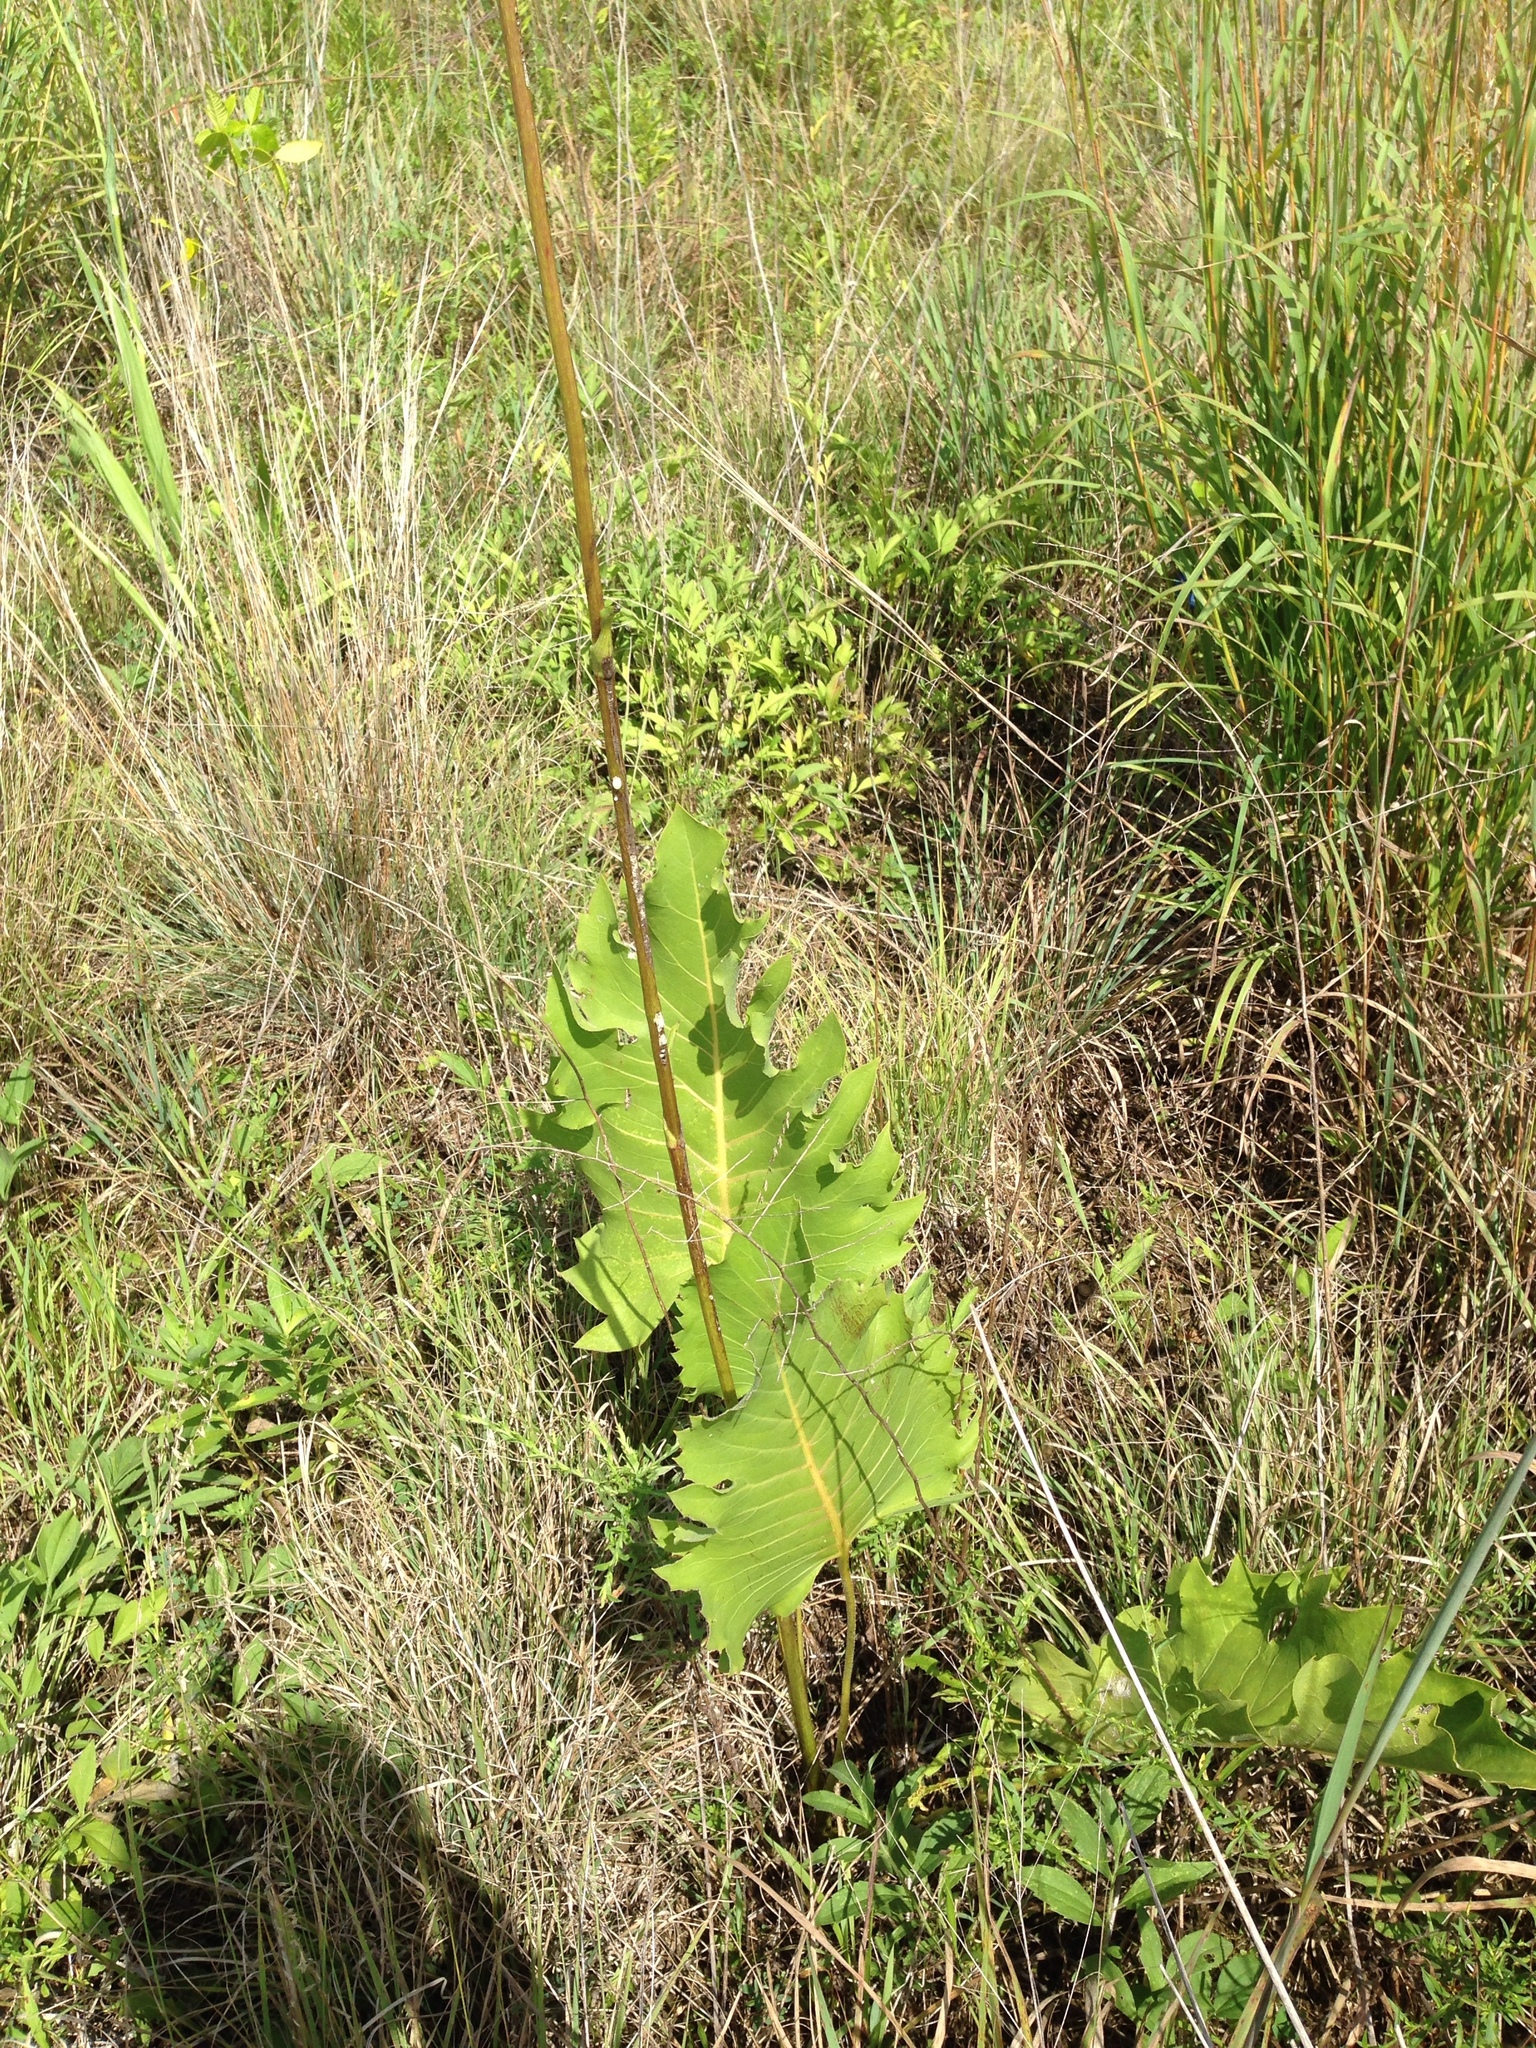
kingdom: Plantae
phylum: Tracheophyta
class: Magnoliopsida
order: Asterales
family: Asteraceae
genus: Silphium
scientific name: Silphium terebinthinaceum
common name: Basal-leaf rosinweed
